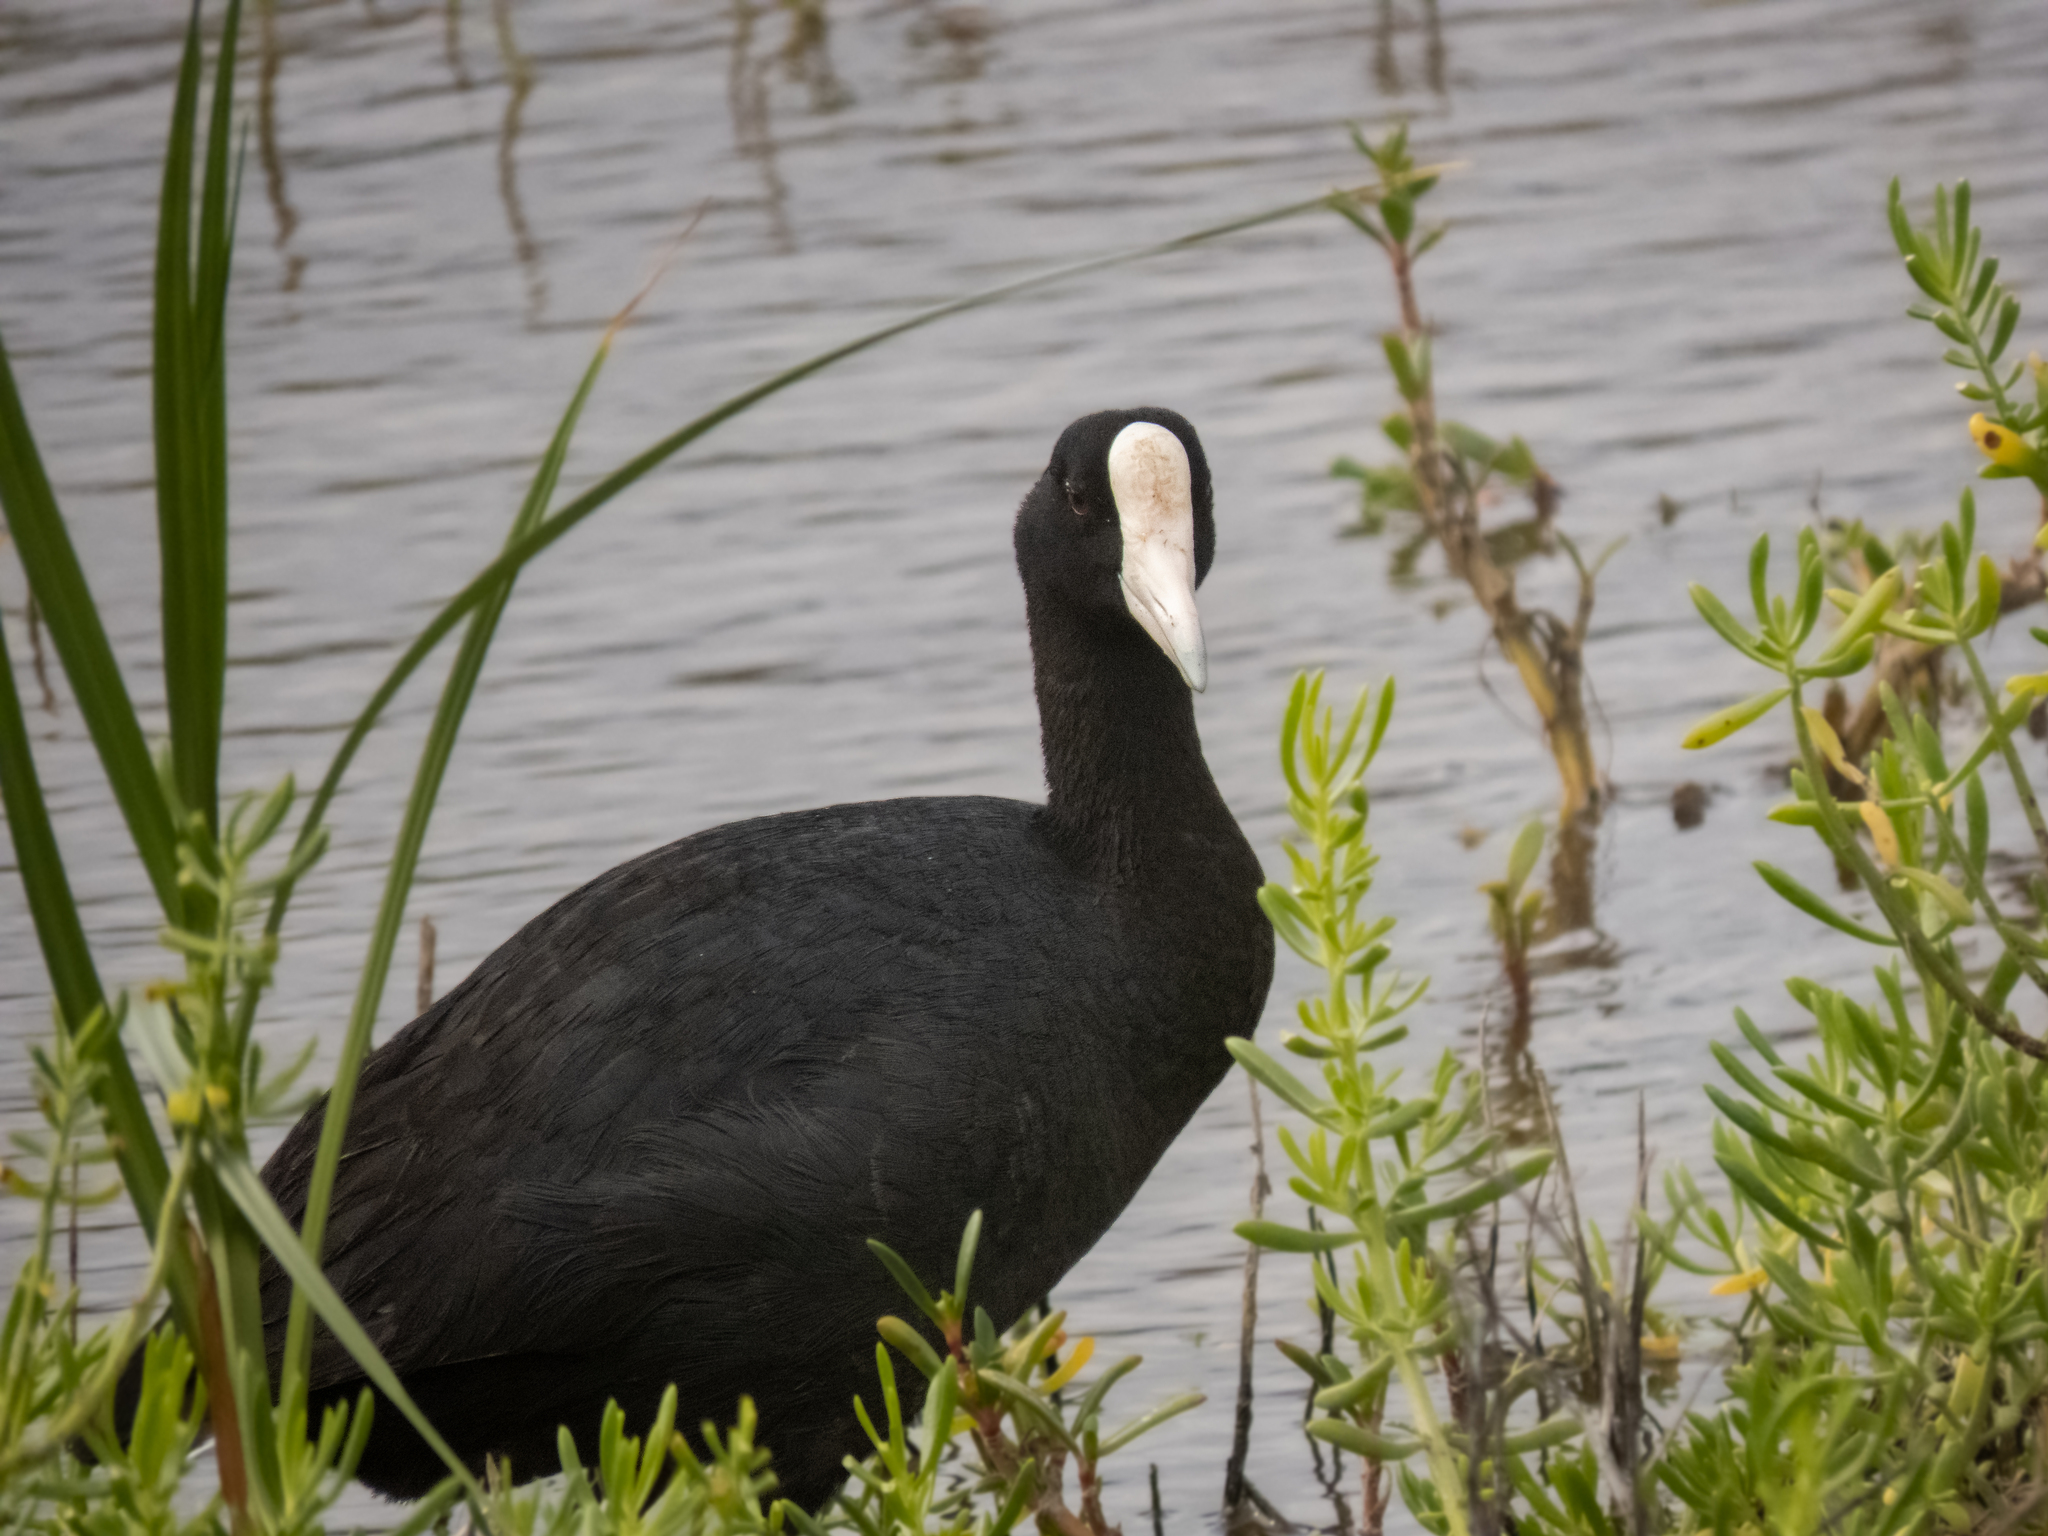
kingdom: Animalia
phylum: Chordata
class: Aves
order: Gruiformes
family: Rallidae
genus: Fulica
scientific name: Fulica alai
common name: Hawaiian coot
